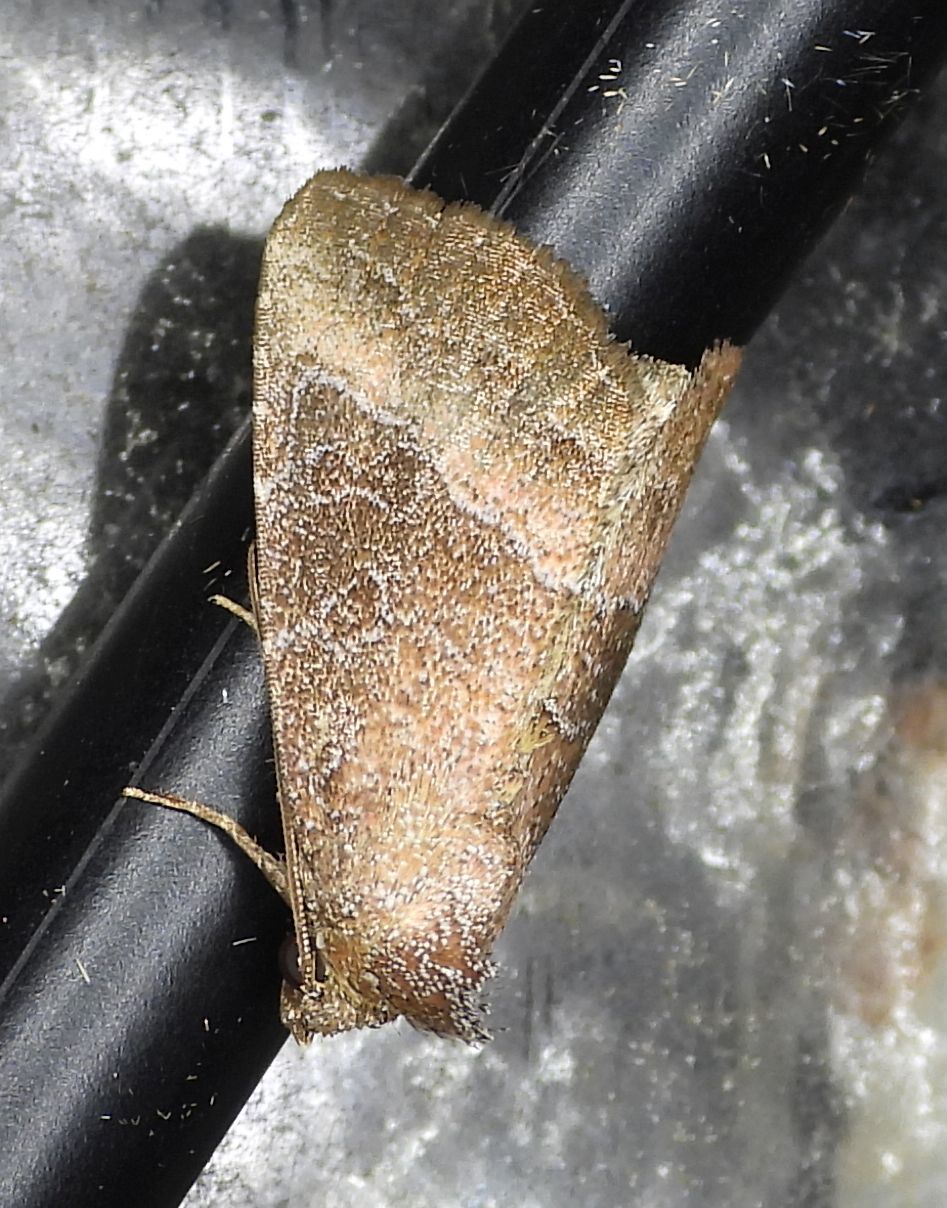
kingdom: Animalia
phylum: Arthropoda
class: Insecta
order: Lepidoptera
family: Noctuidae
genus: Ogdoconta
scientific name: Ogdoconta cinereola
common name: Common pinkband
